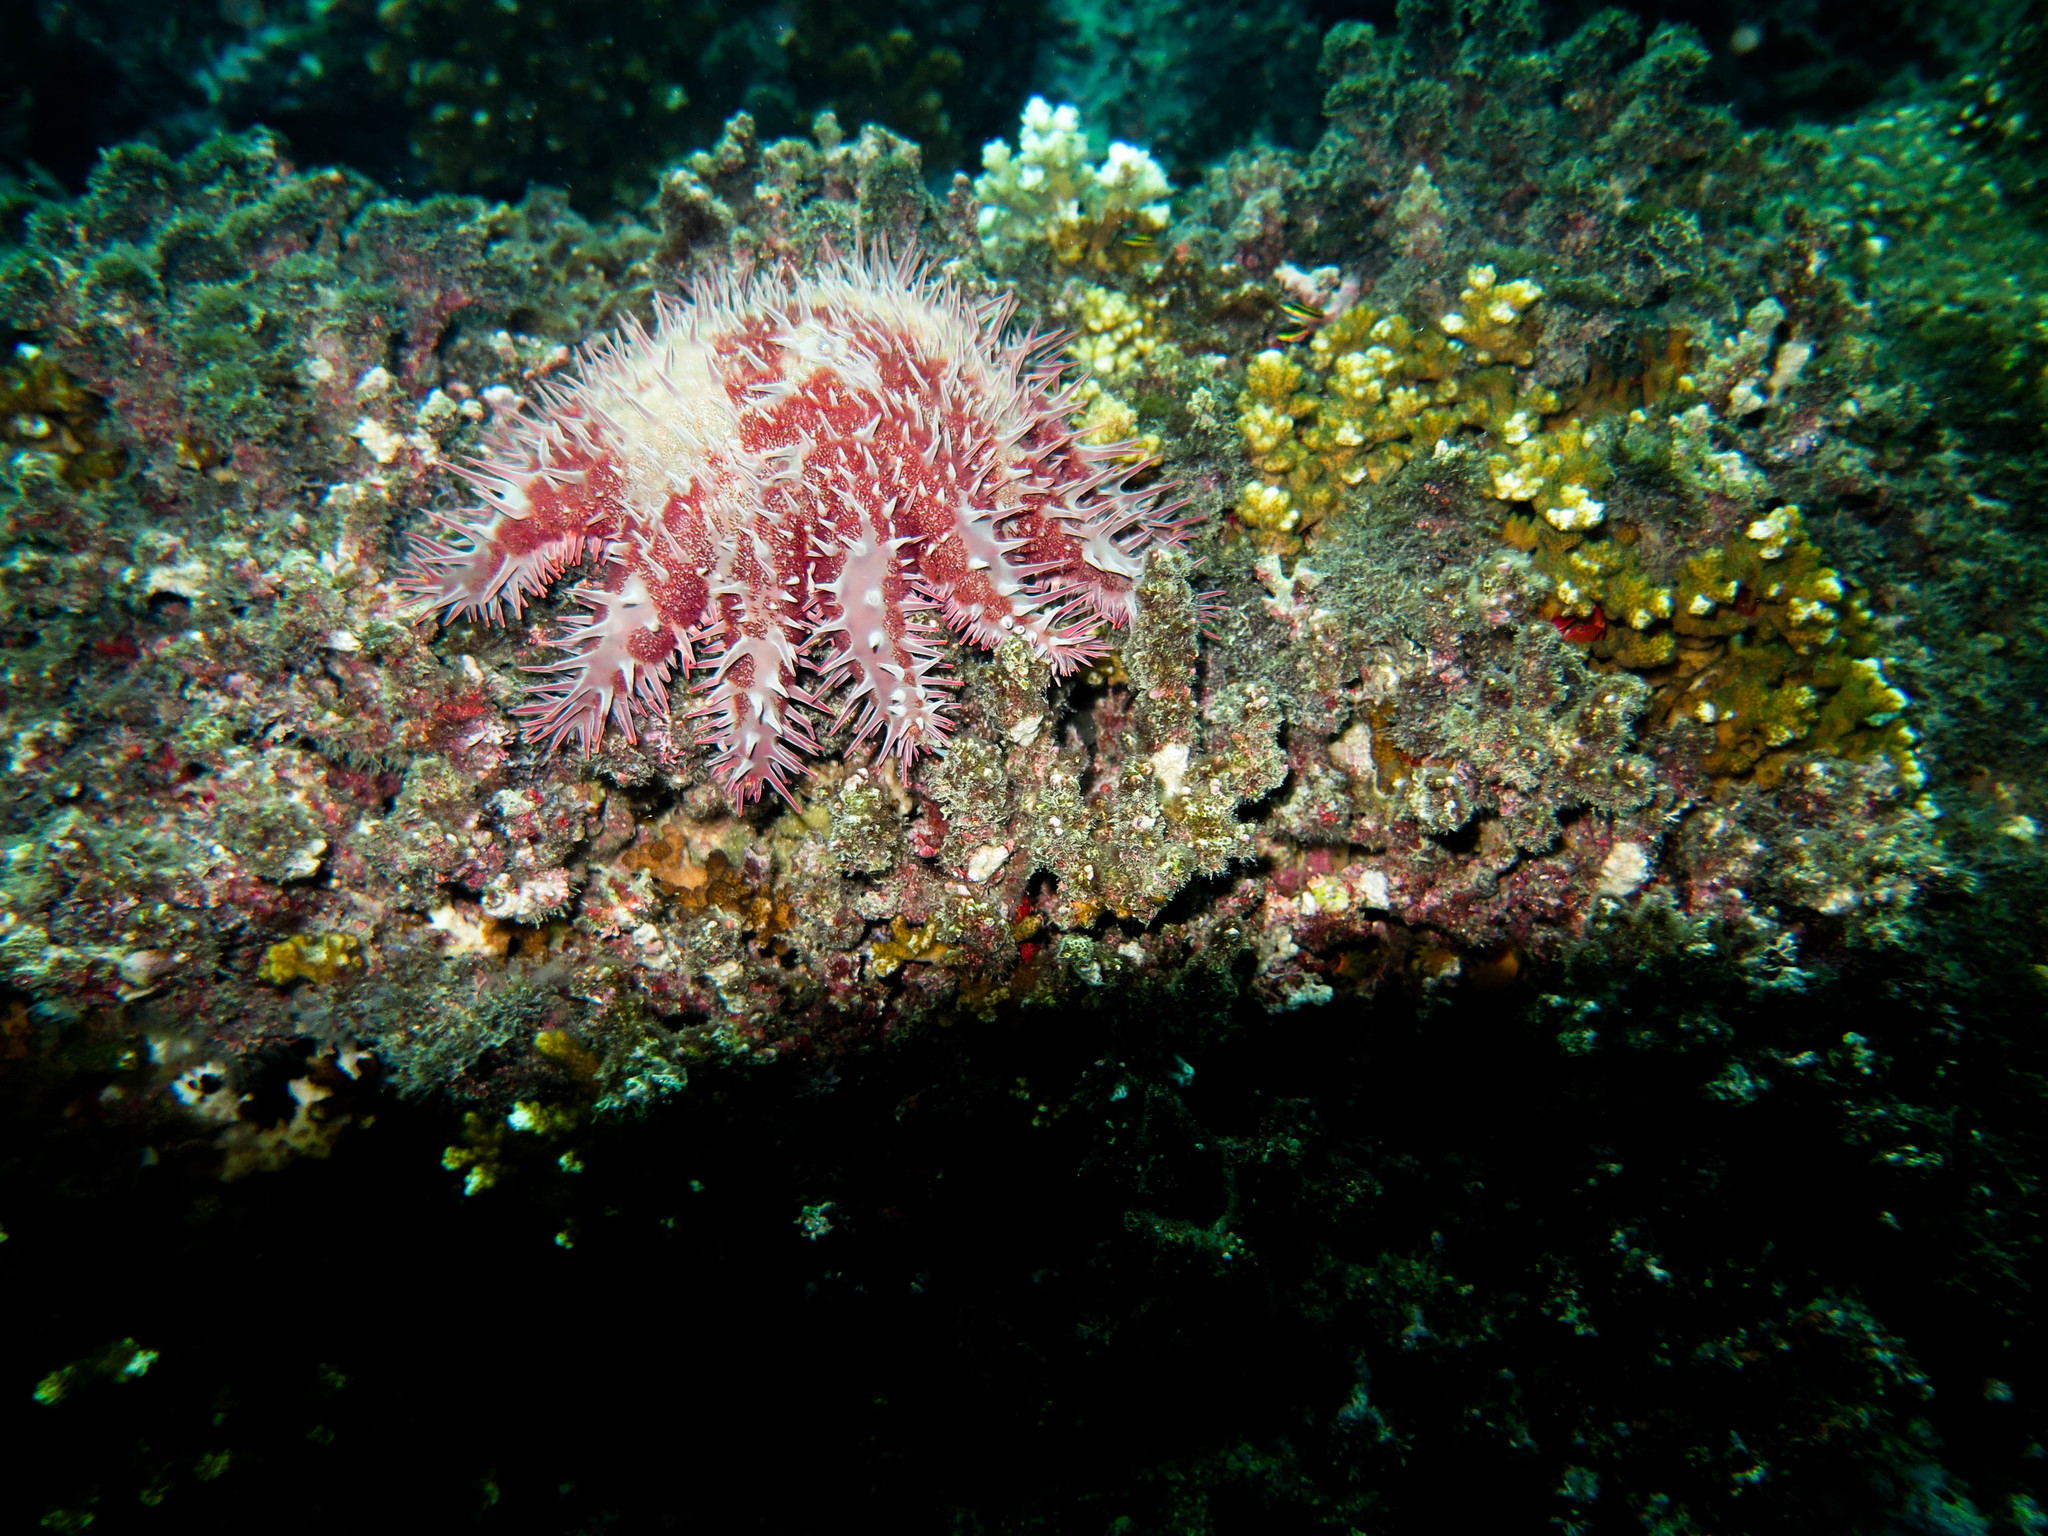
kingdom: Animalia
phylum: Echinodermata
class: Asteroidea
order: Valvatida
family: Acanthasteridae
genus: Acanthaster
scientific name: Acanthaster planci
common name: Crown-of-thorns
